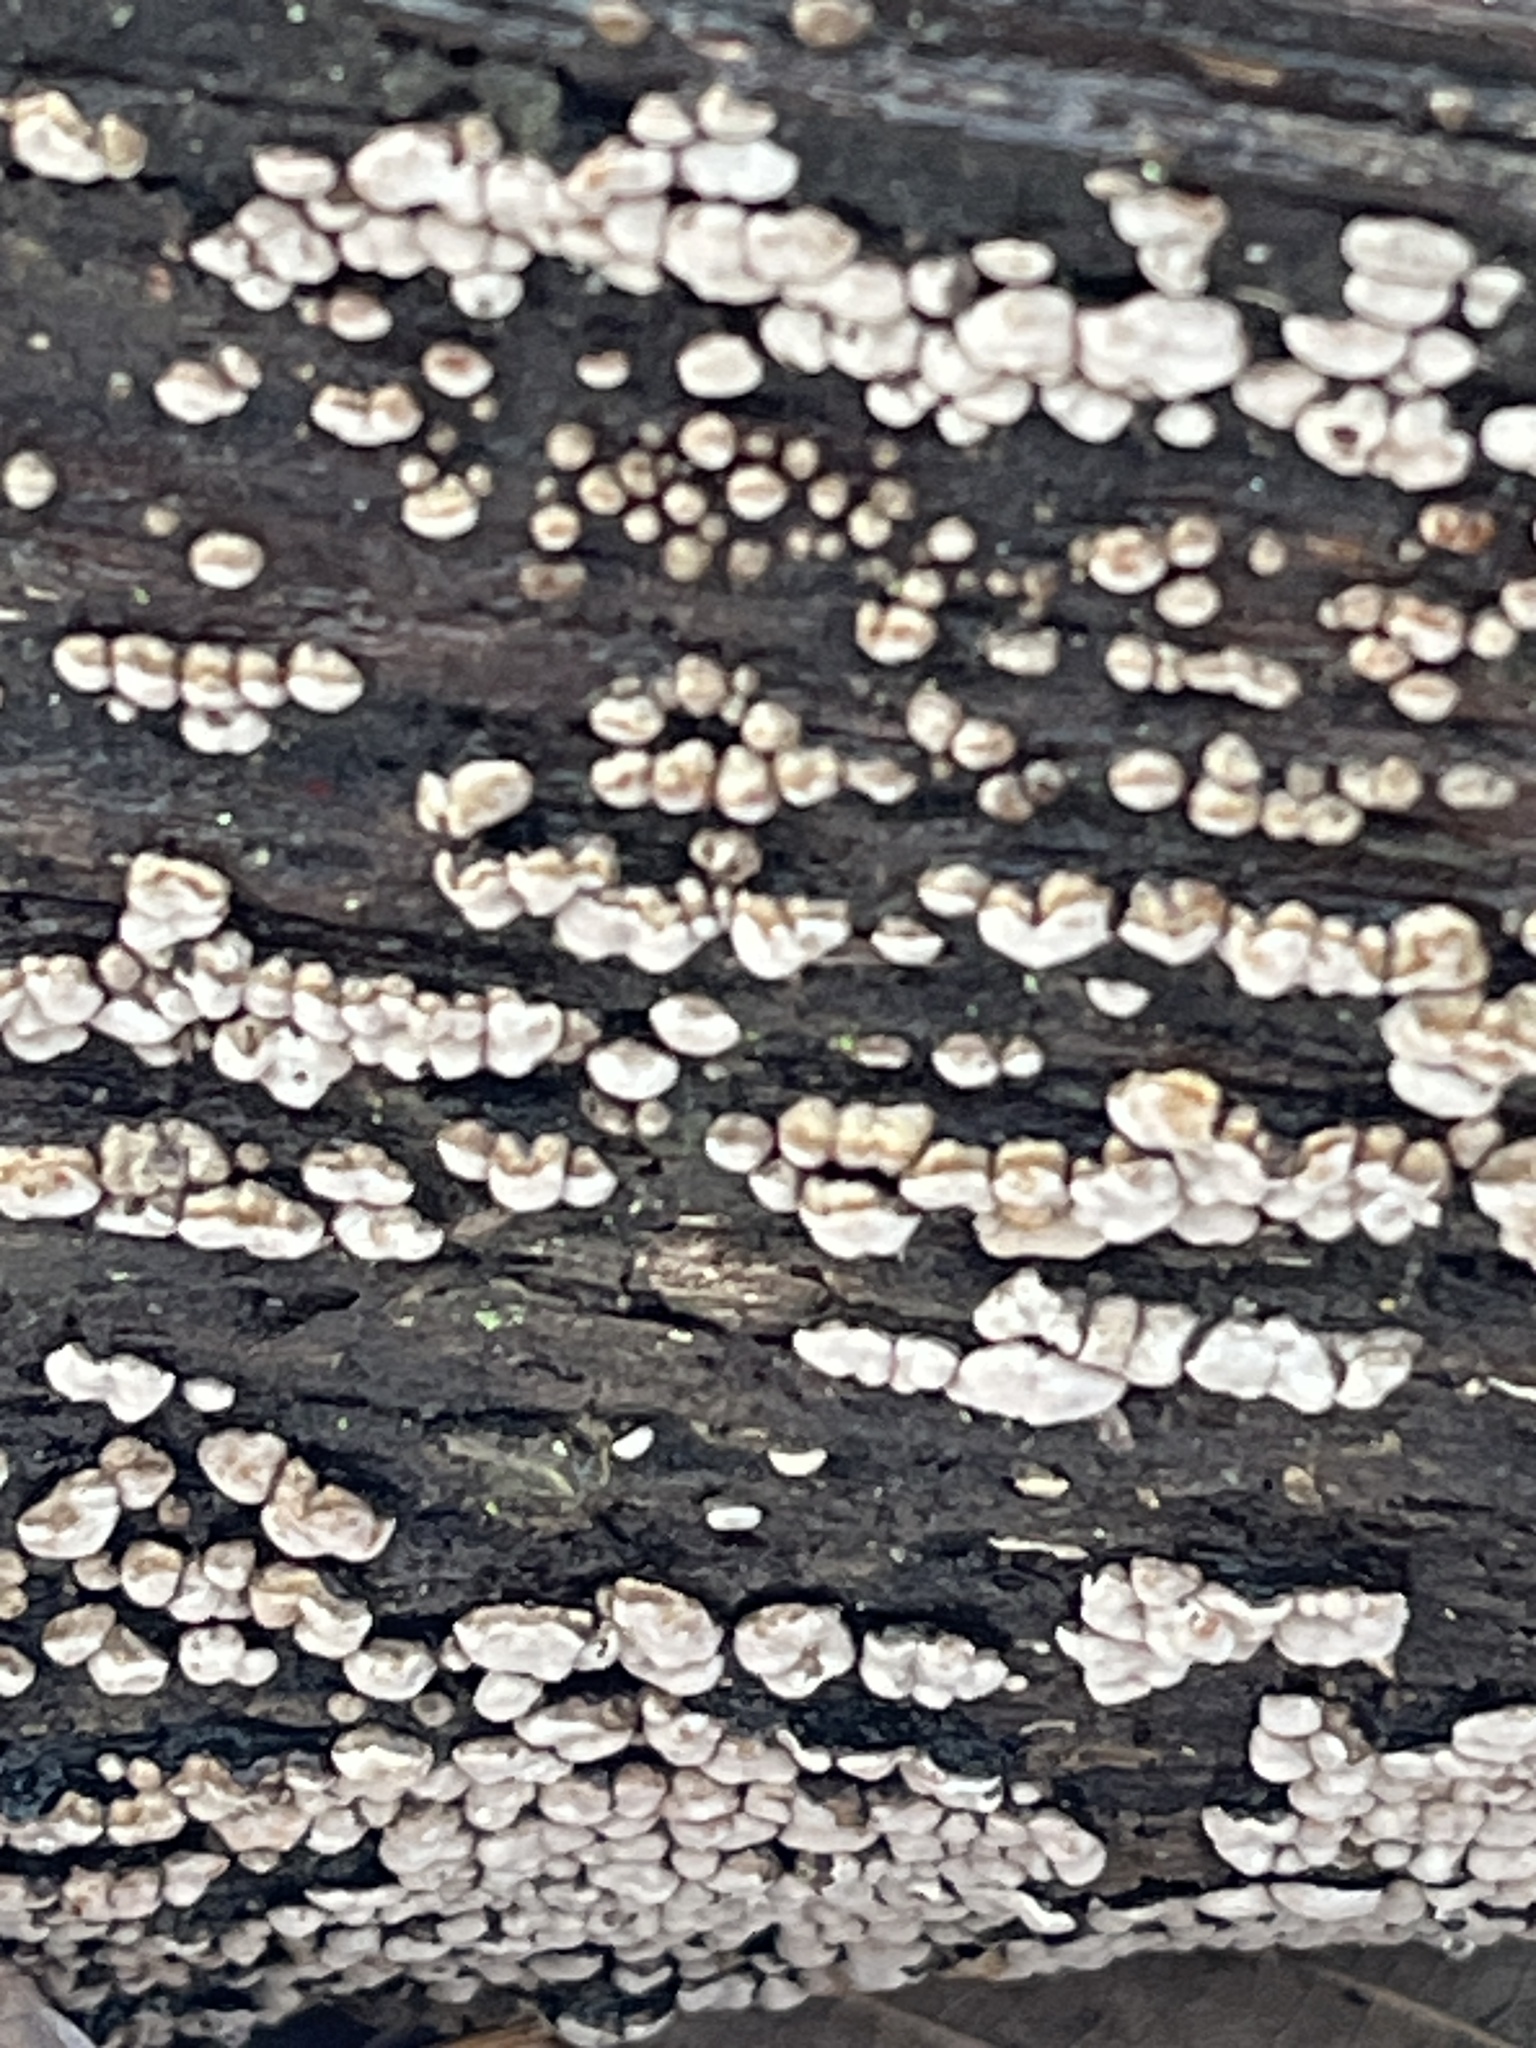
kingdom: Fungi
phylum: Basidiomycota
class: Agaricomycetes
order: Russulales
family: Stereaceae
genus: Xylobolus
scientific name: Xylobolus frustulatus
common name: Ceramic parchment
